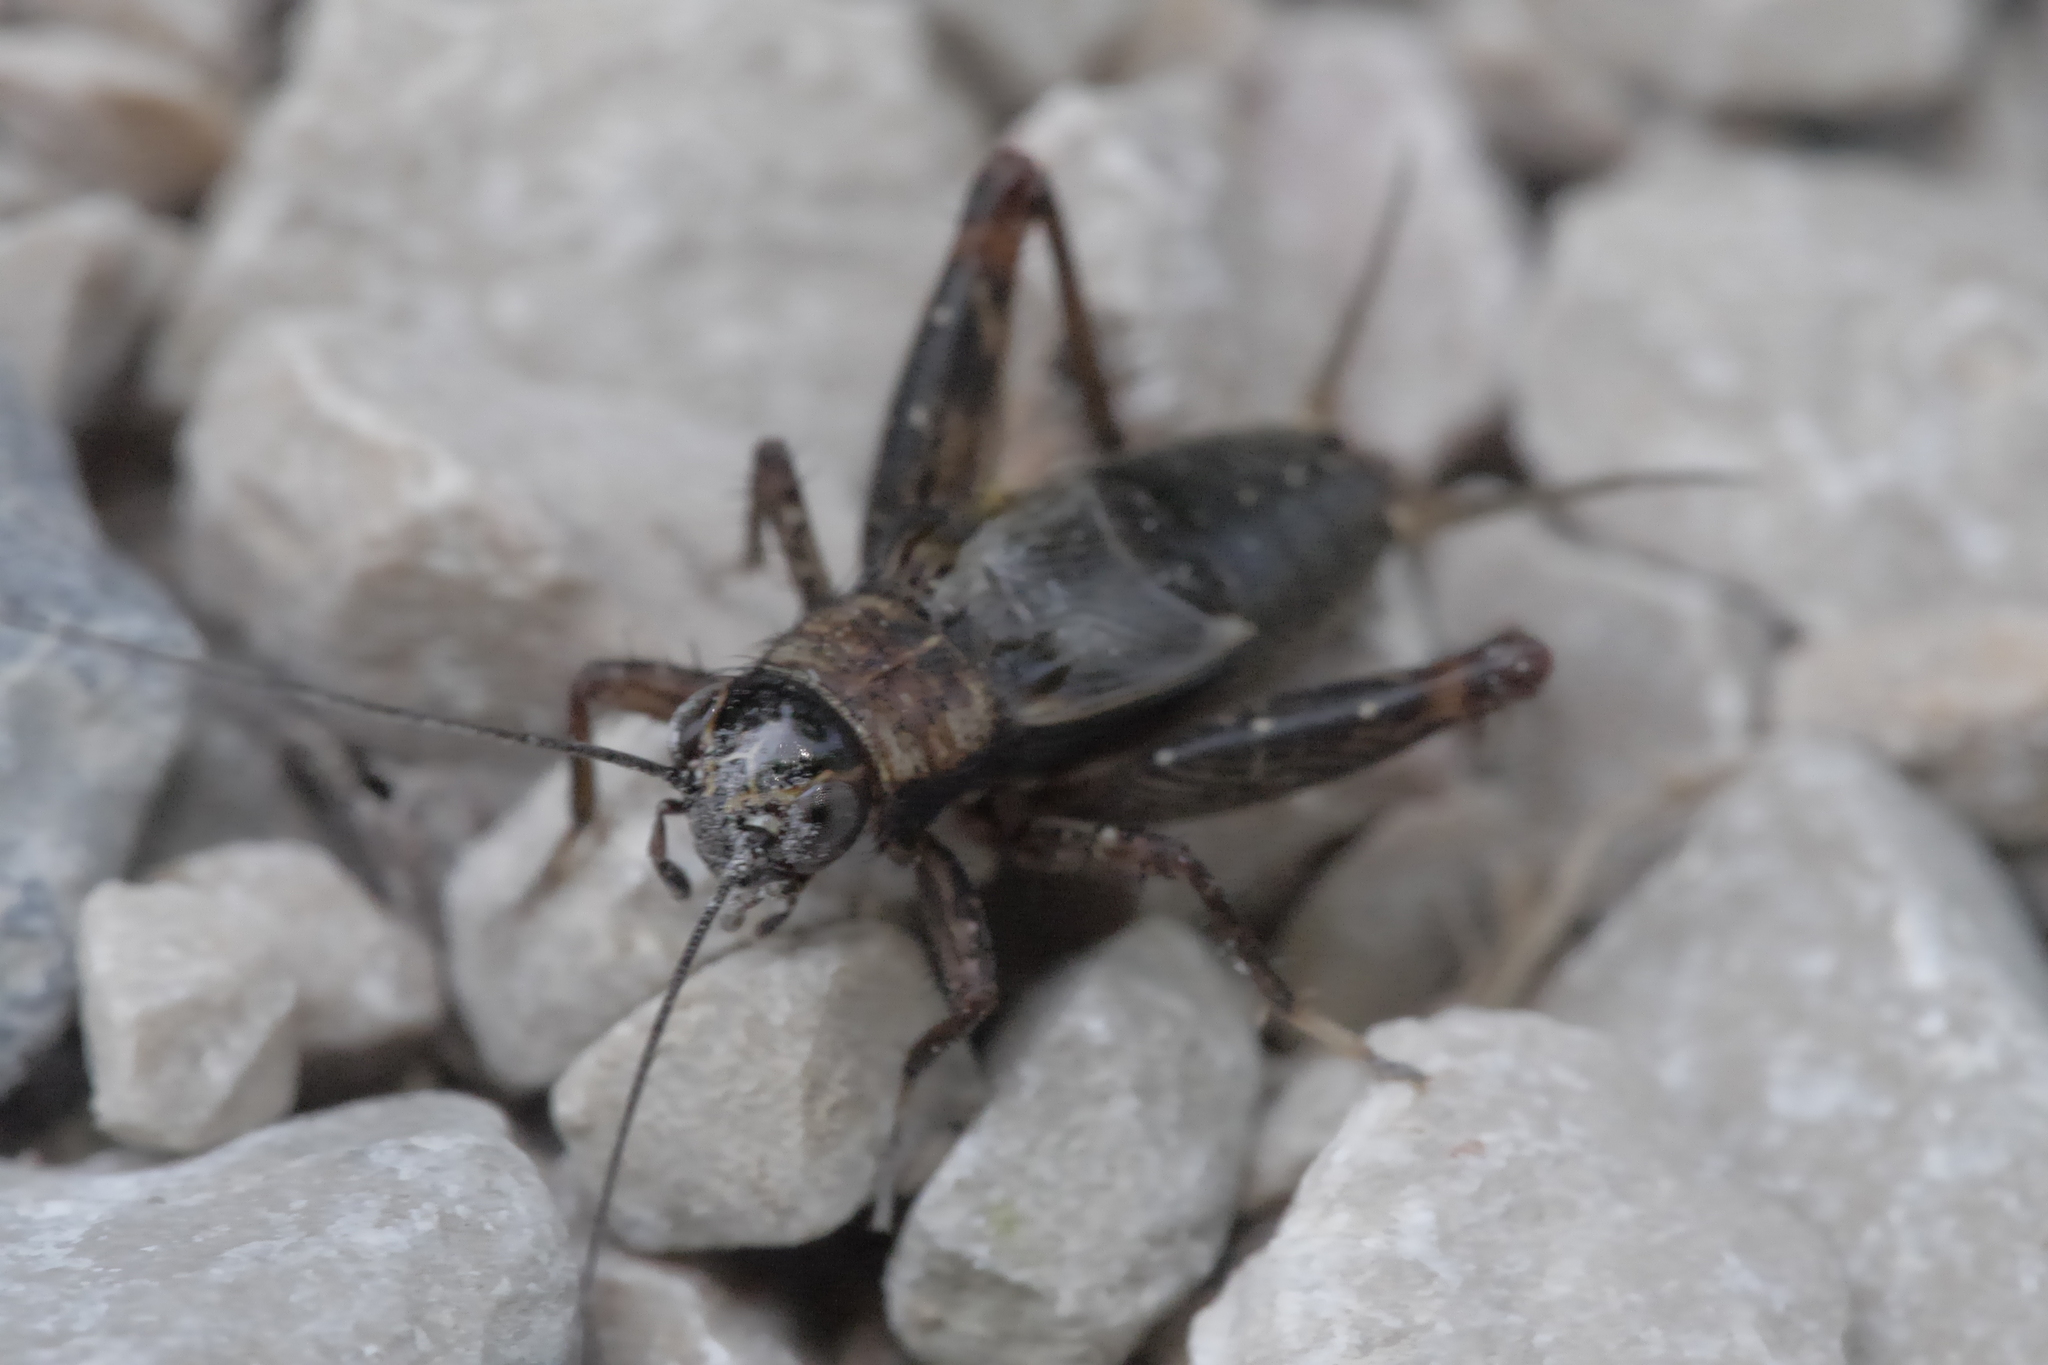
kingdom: Animalia
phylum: Arthropoda
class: Insecta
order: Orthoptera
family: Trigonidiidae
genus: Nemobius
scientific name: Nemobius sylvestris
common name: Wood-cricket
